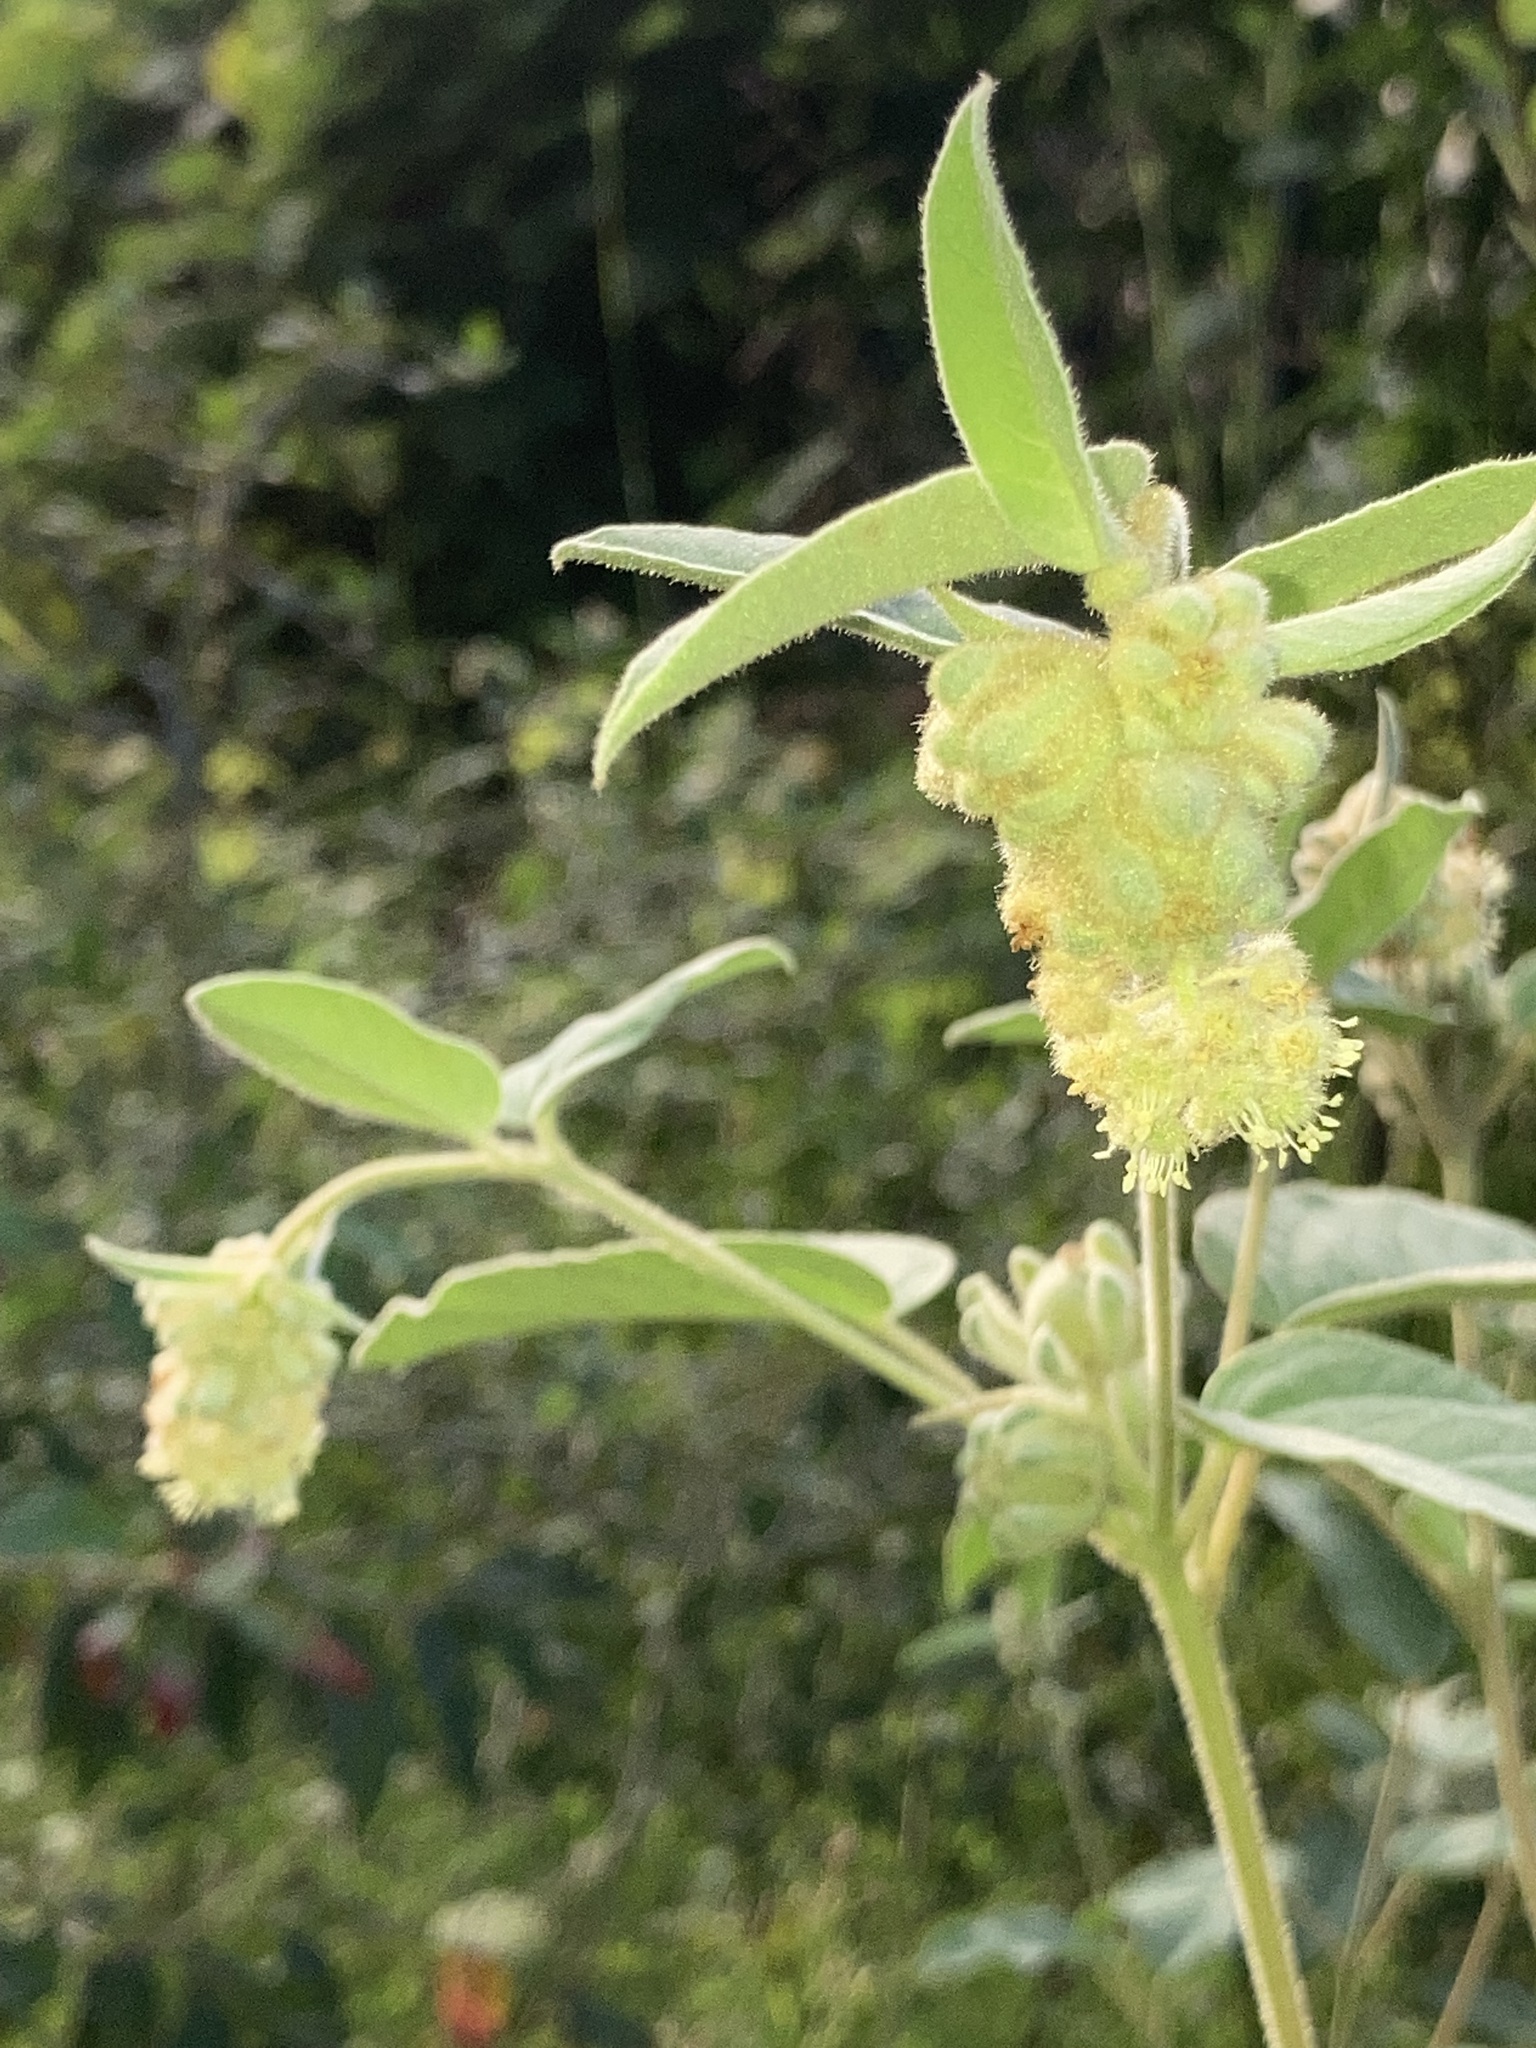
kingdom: Plantae
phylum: Tracheophyta
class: Magnoliopsida
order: Malpighiales
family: Euphorbiaceae
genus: Croton
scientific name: Croton lindheimeri
